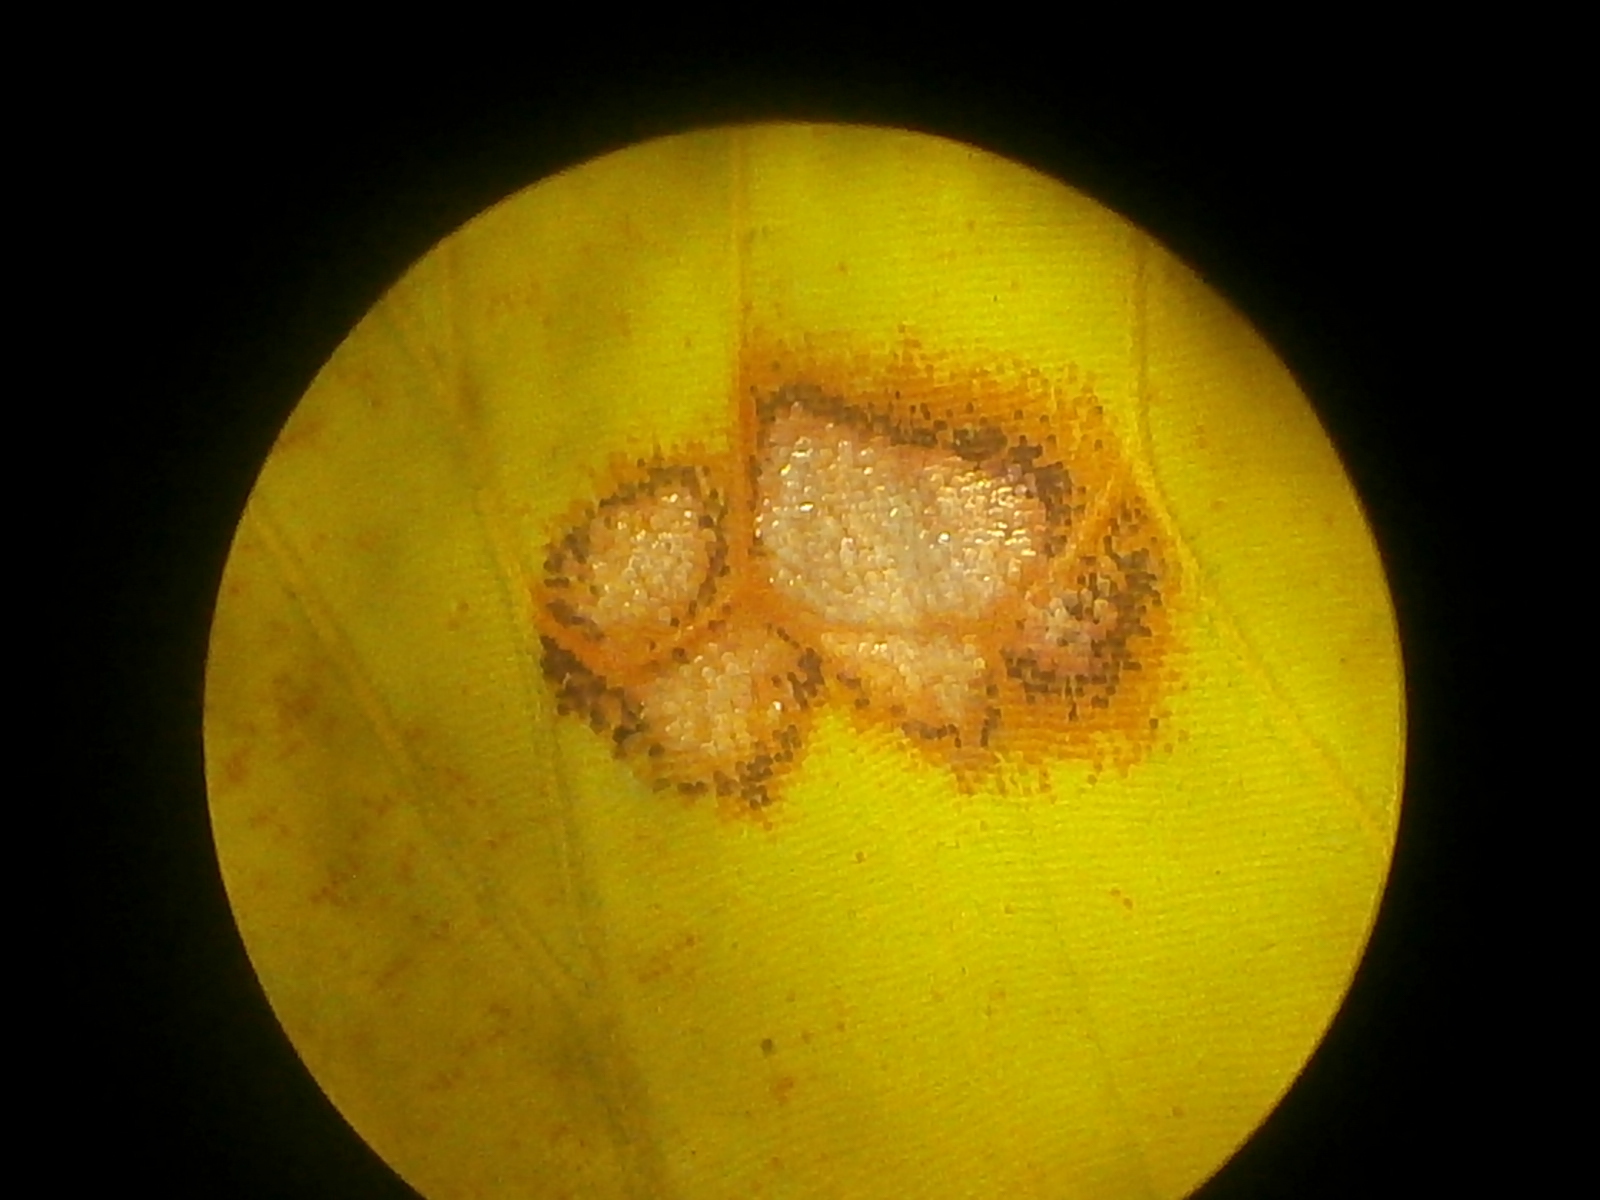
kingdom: Animalia
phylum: Arthropoda
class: Insecta
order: Lepidoptera
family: Pieridae
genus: Phoebis
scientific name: Phoebis sennae
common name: Cloudless sulphur
